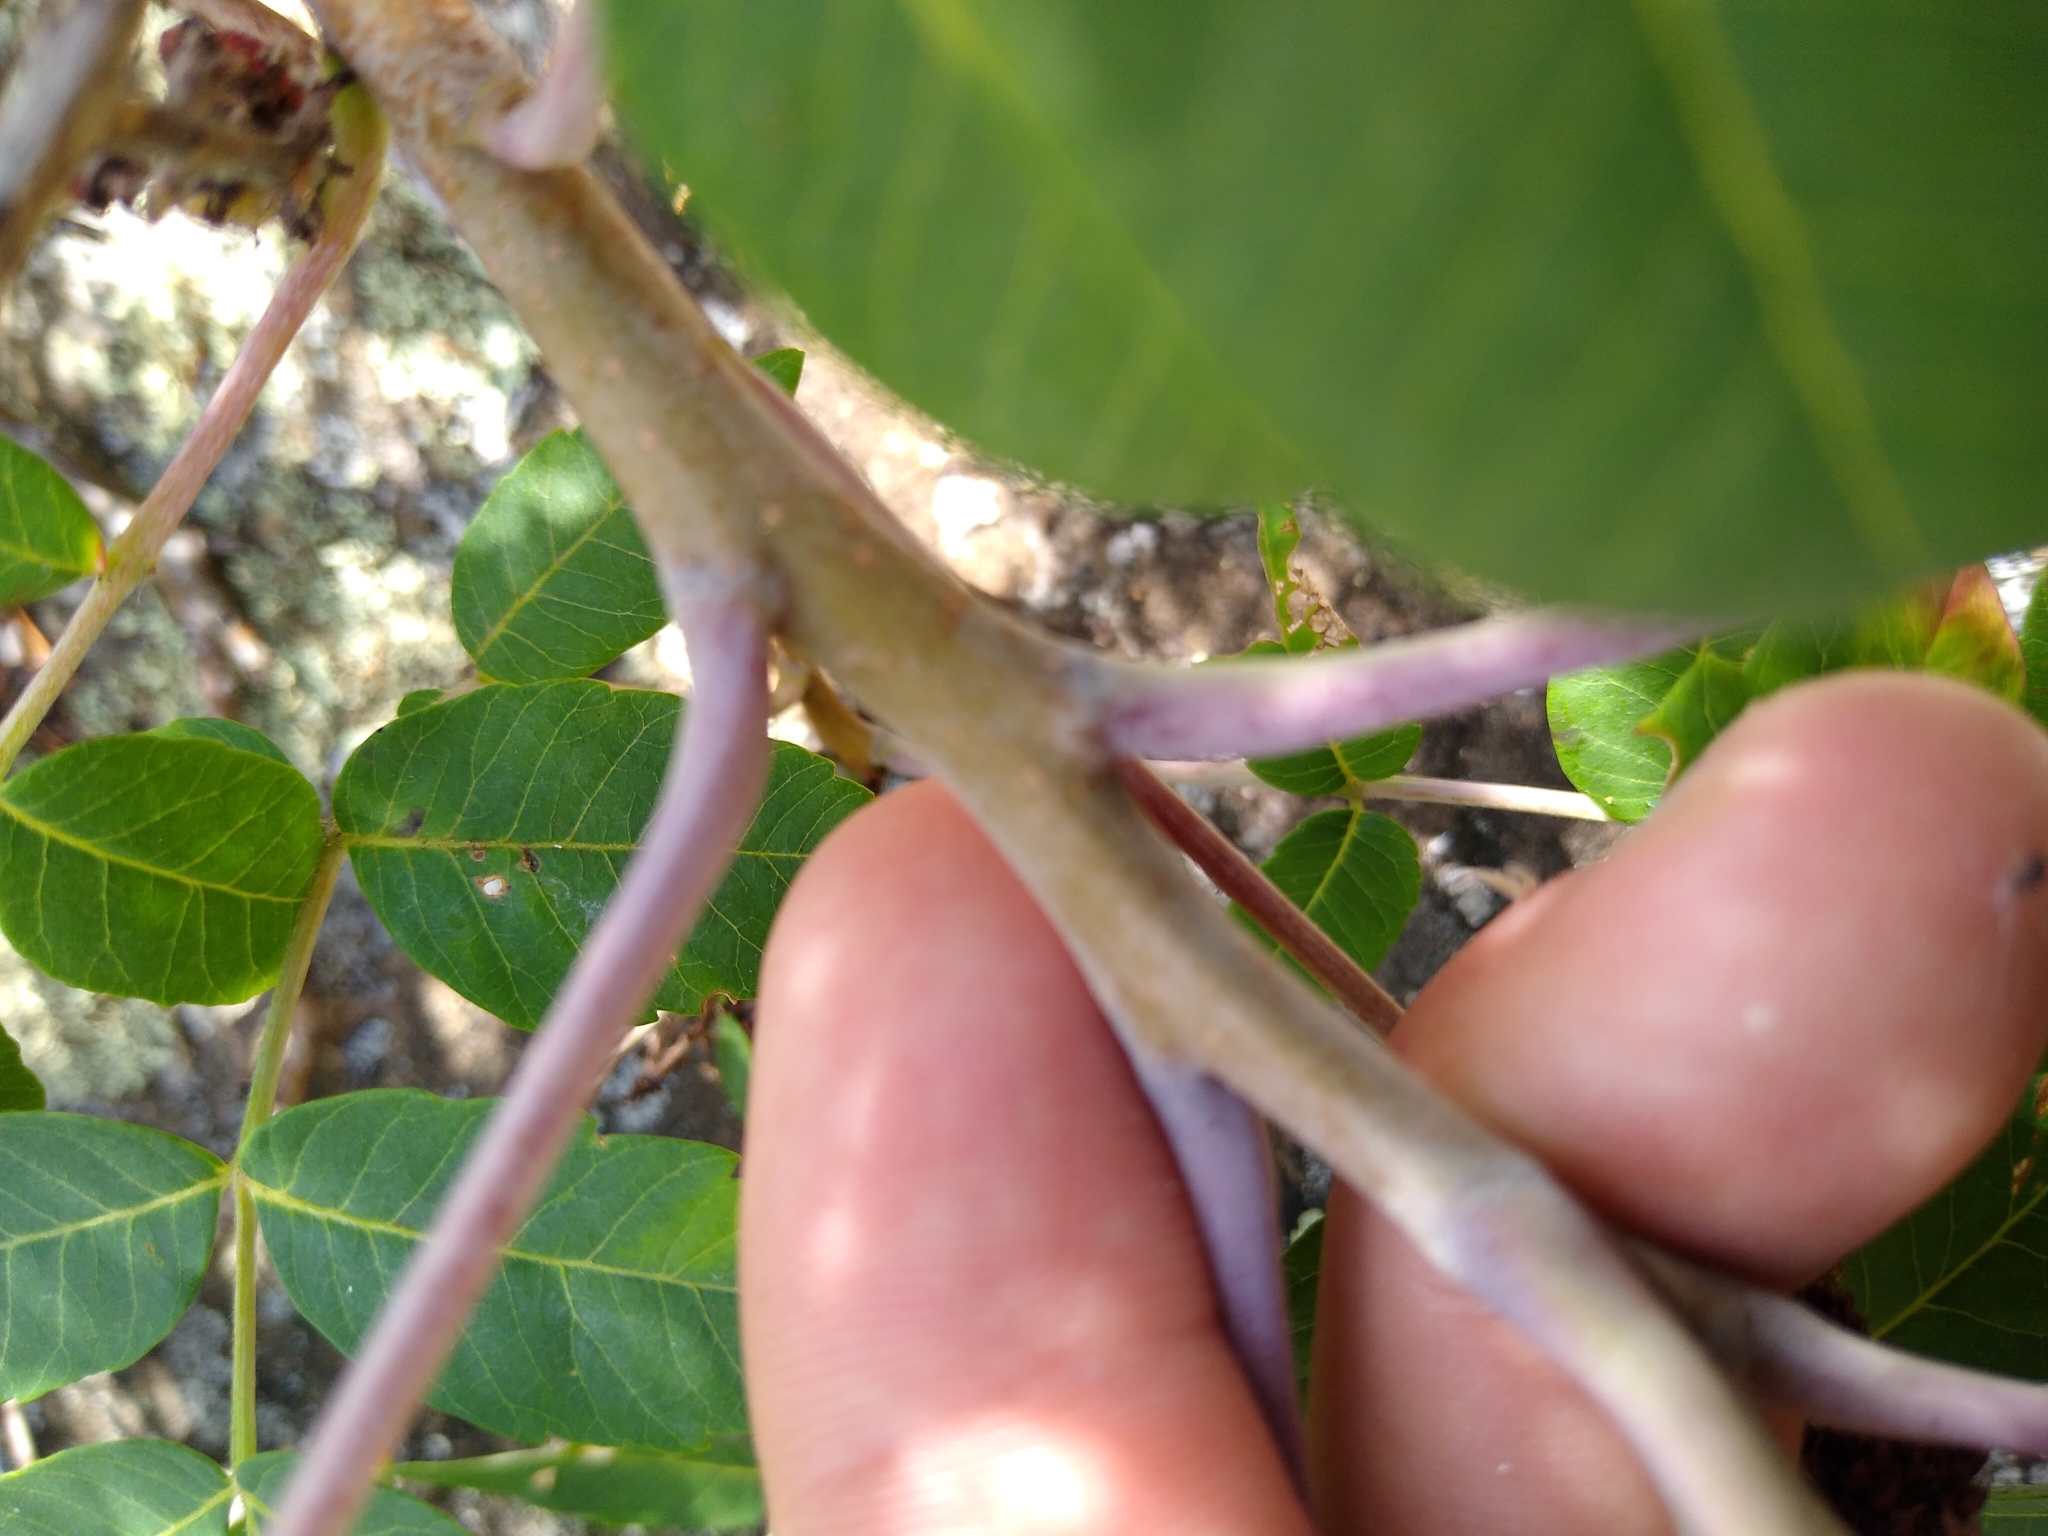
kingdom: Plantae
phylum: Tracheophyta
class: Magnoliopsida
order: Sapindales
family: Anacardiaceae
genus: Rhus
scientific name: Rhus glabra
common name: Scarlet sumac
